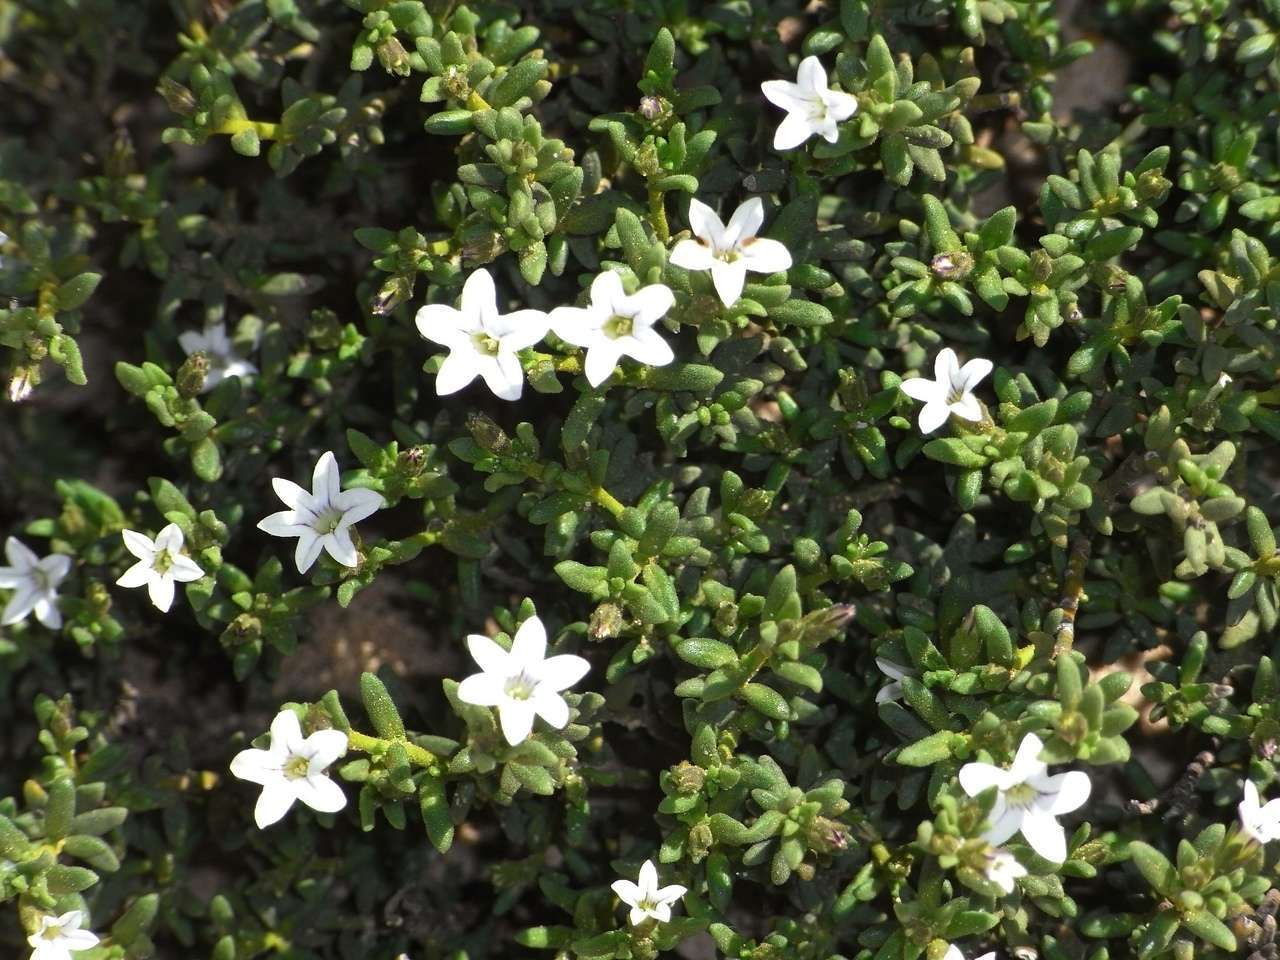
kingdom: Plantae
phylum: Tracheophyta
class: Magnoliopsida
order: Solanales
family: Solanaceae
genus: Cyphanthera
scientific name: Cyphanthera myosotidea
